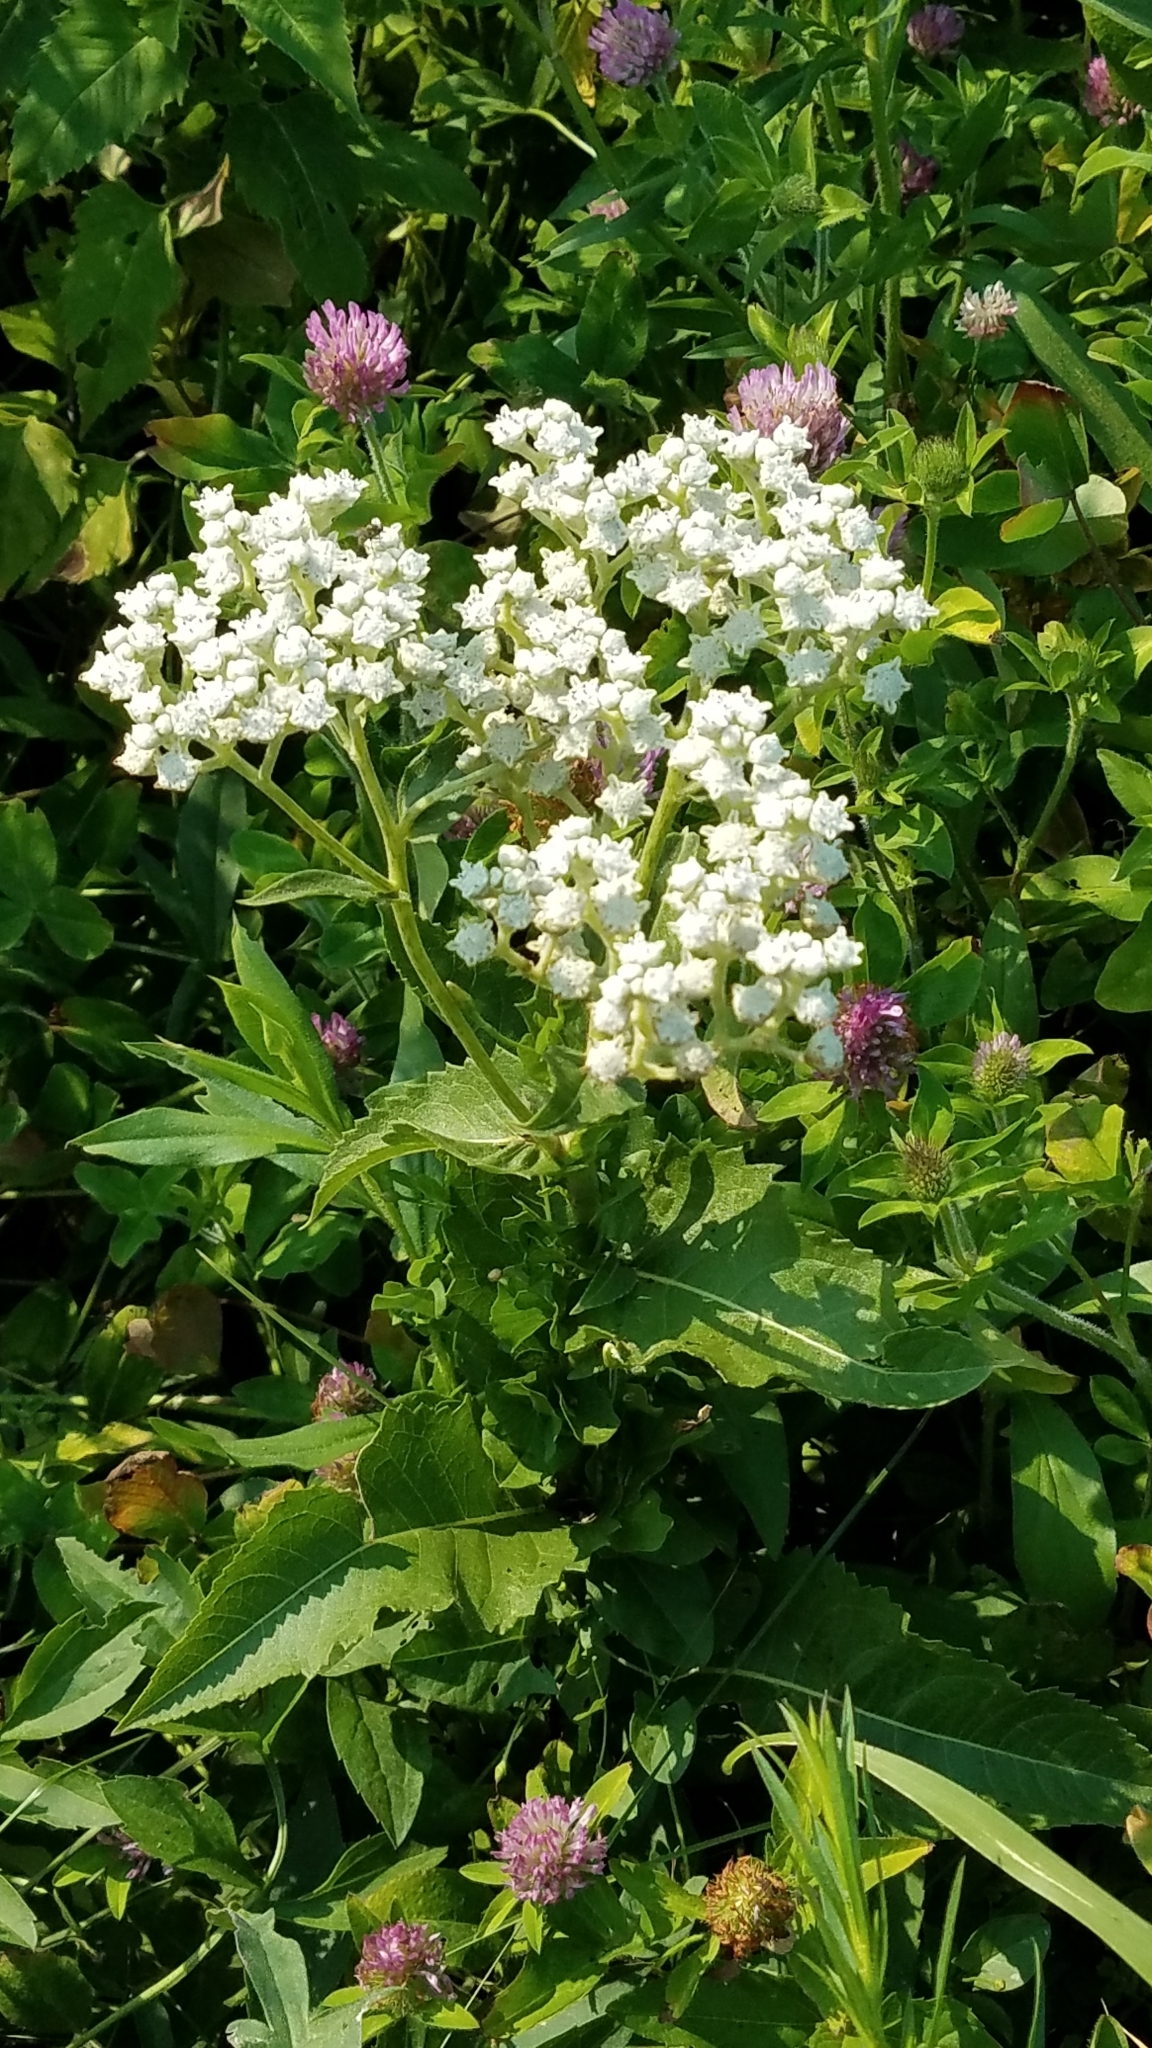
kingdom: Plantae
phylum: Tracheophyta
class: Magnoliopsida
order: Asterales
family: Asteraceae
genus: Parthenium
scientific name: Parthenium integrifolium
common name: American feverfew
